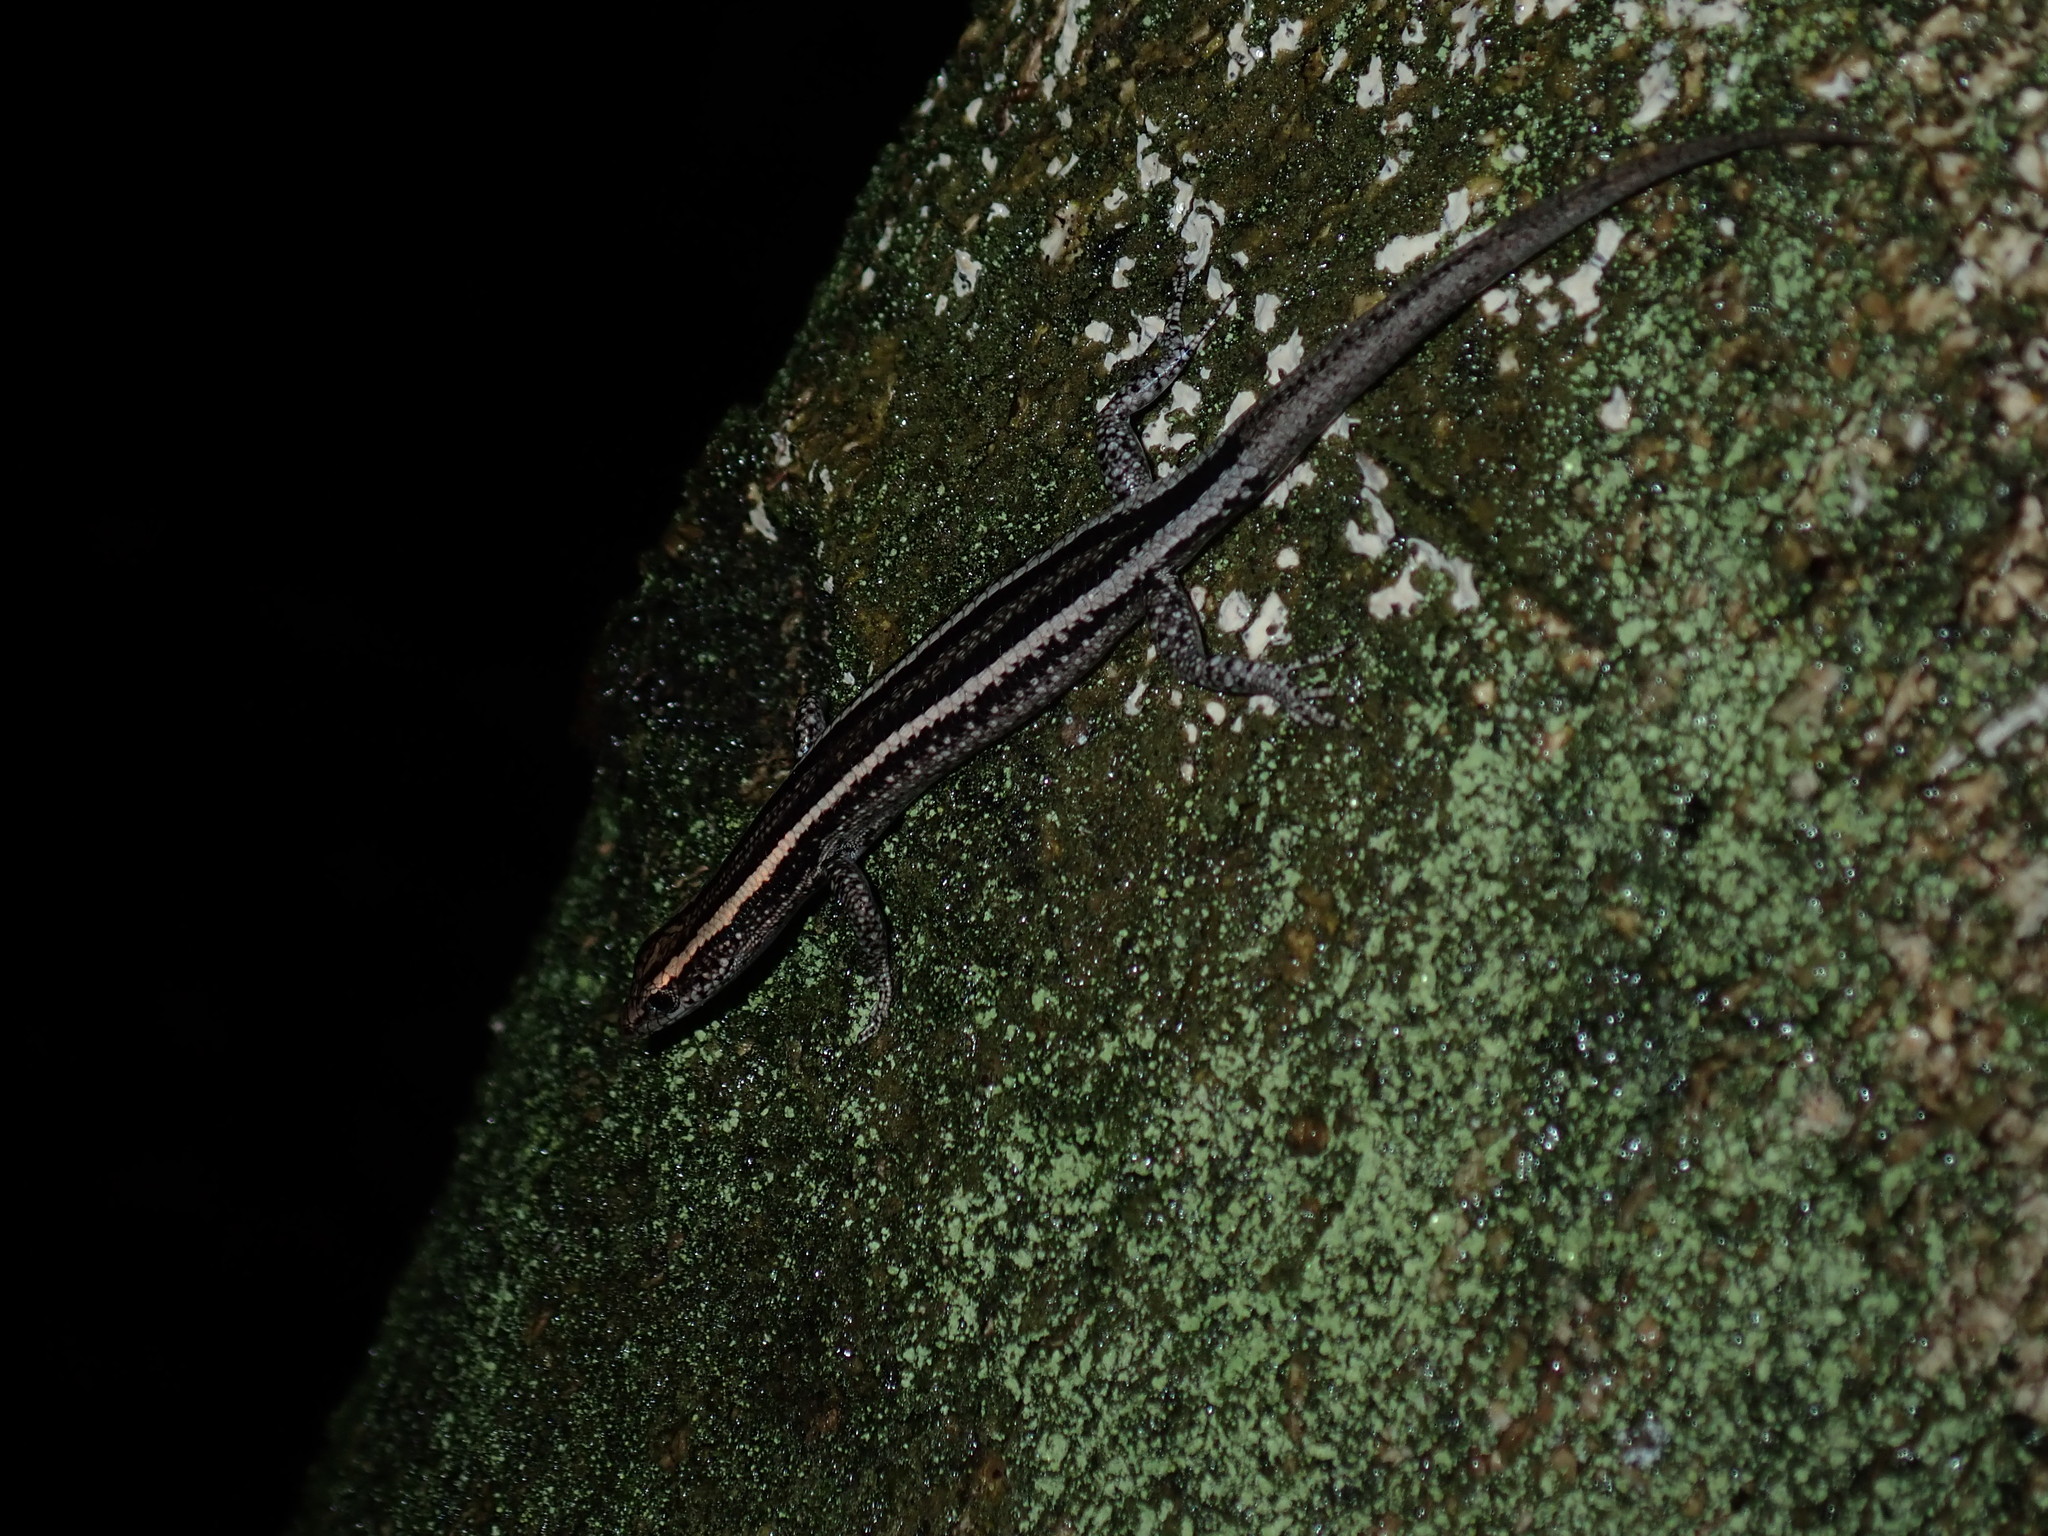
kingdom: Animalia
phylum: Chordata
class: Squamata
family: Scincidae
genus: Cryptoblepharus
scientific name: Cryptoblepharus pulcher
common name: Elegant snake-eyed skink
